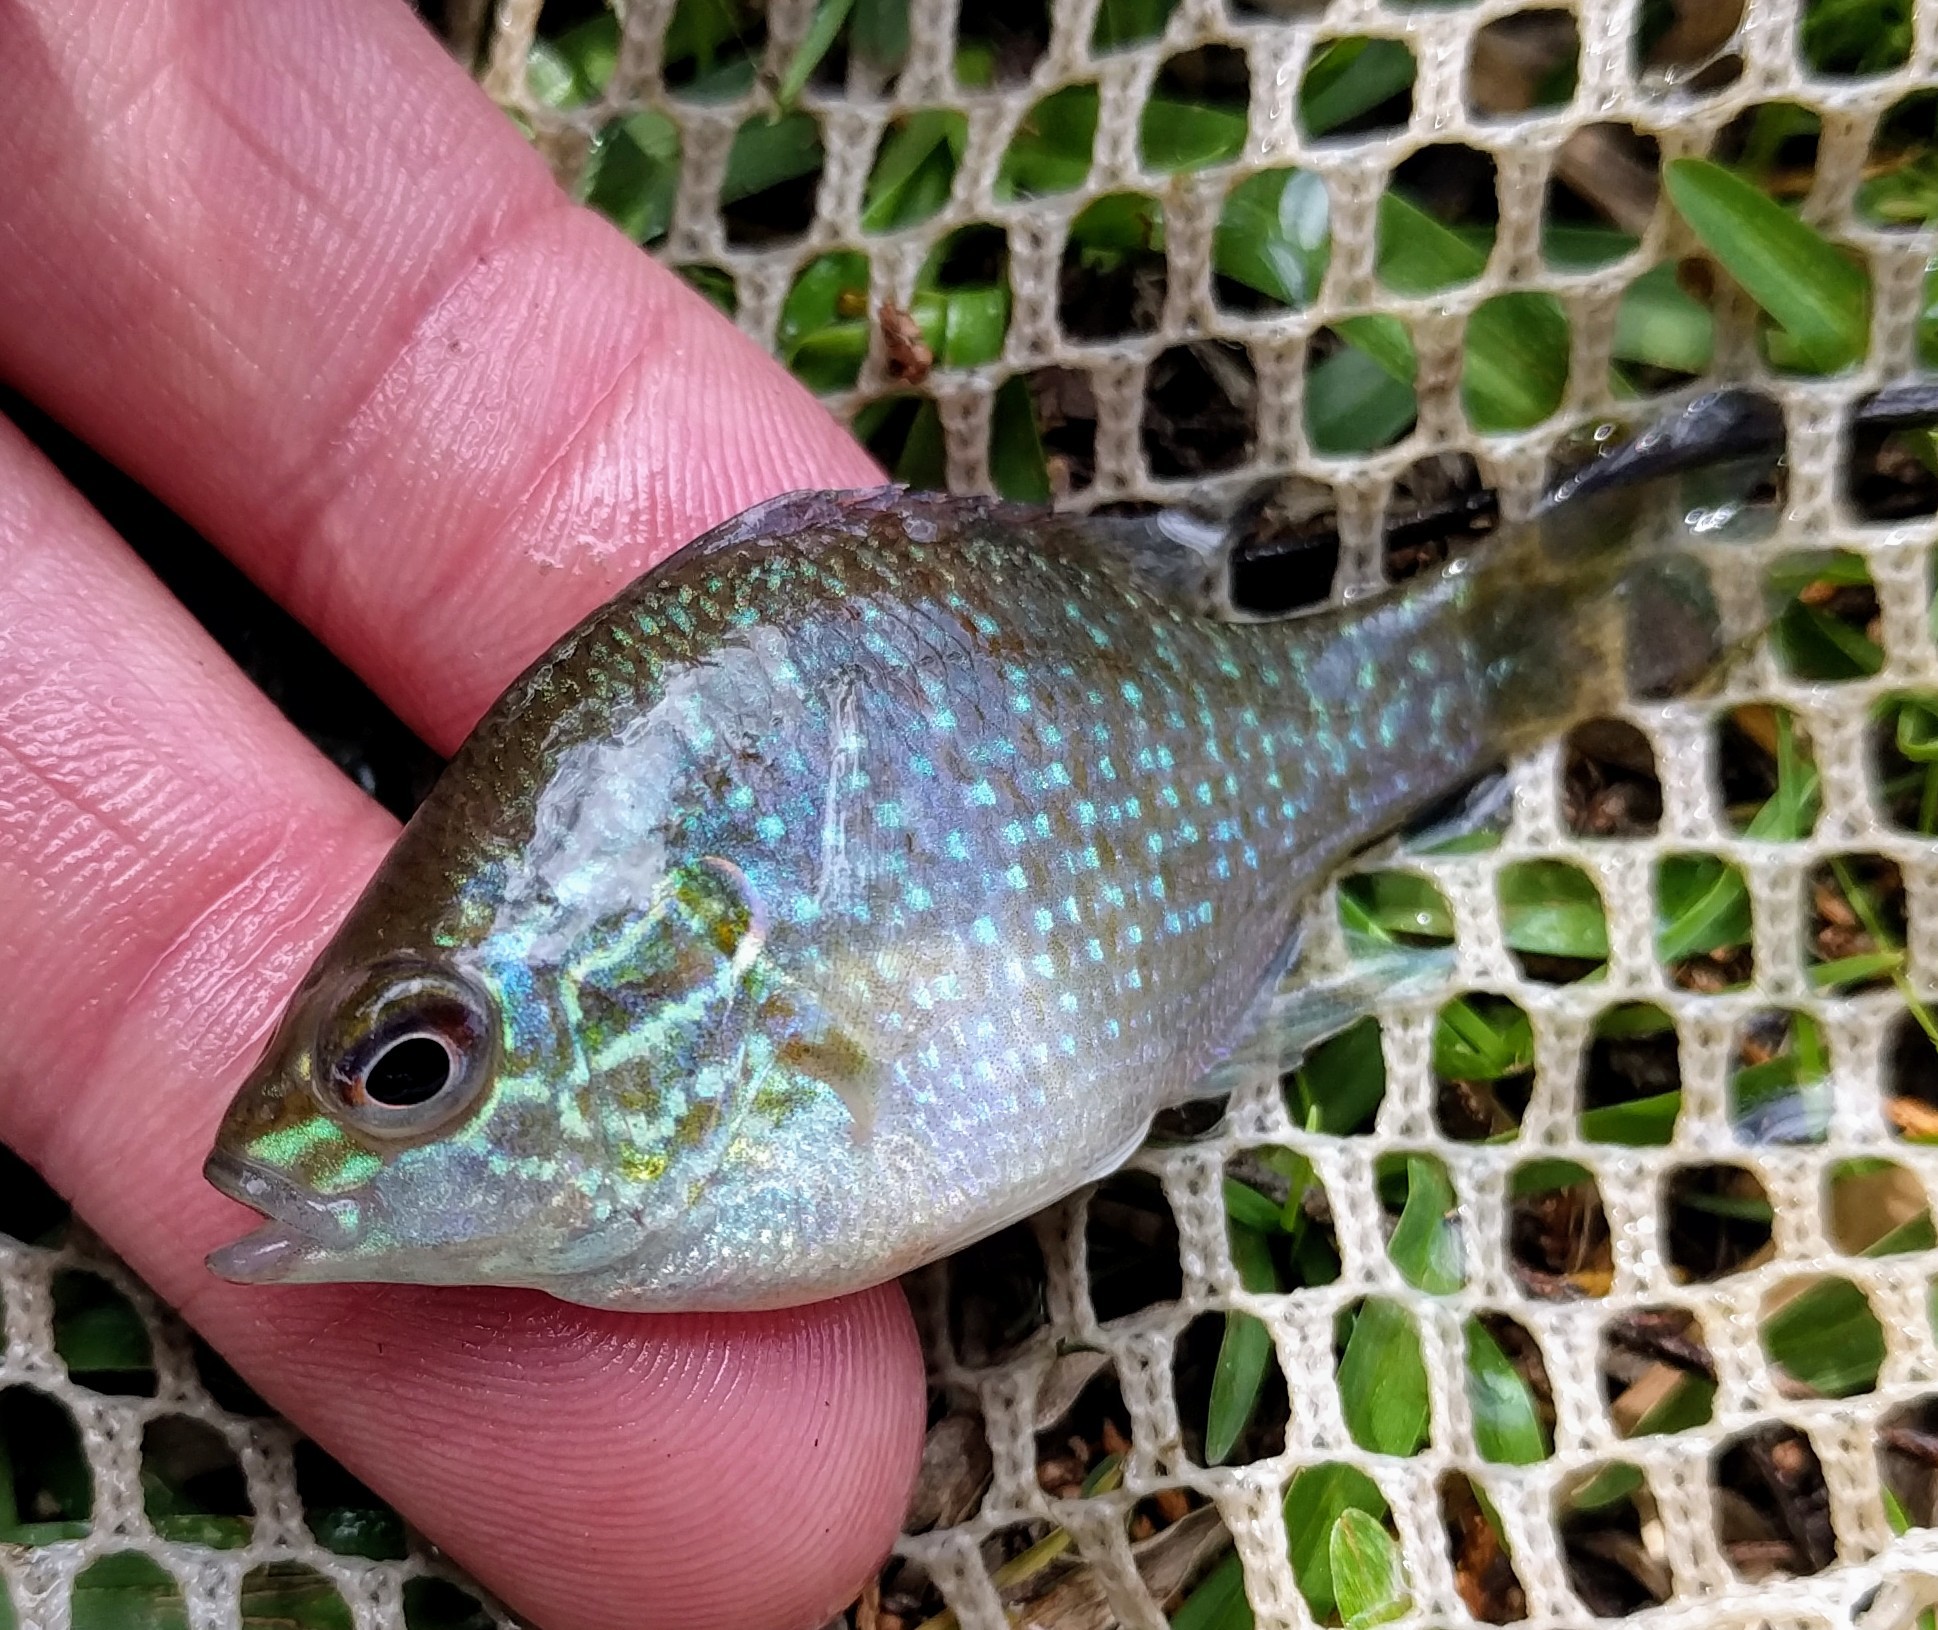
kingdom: Animalia
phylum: Chordata
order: Perciformes
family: Centrarchidae
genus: Lepomis
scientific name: Lepomis marginatus
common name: Dollar sunfish
